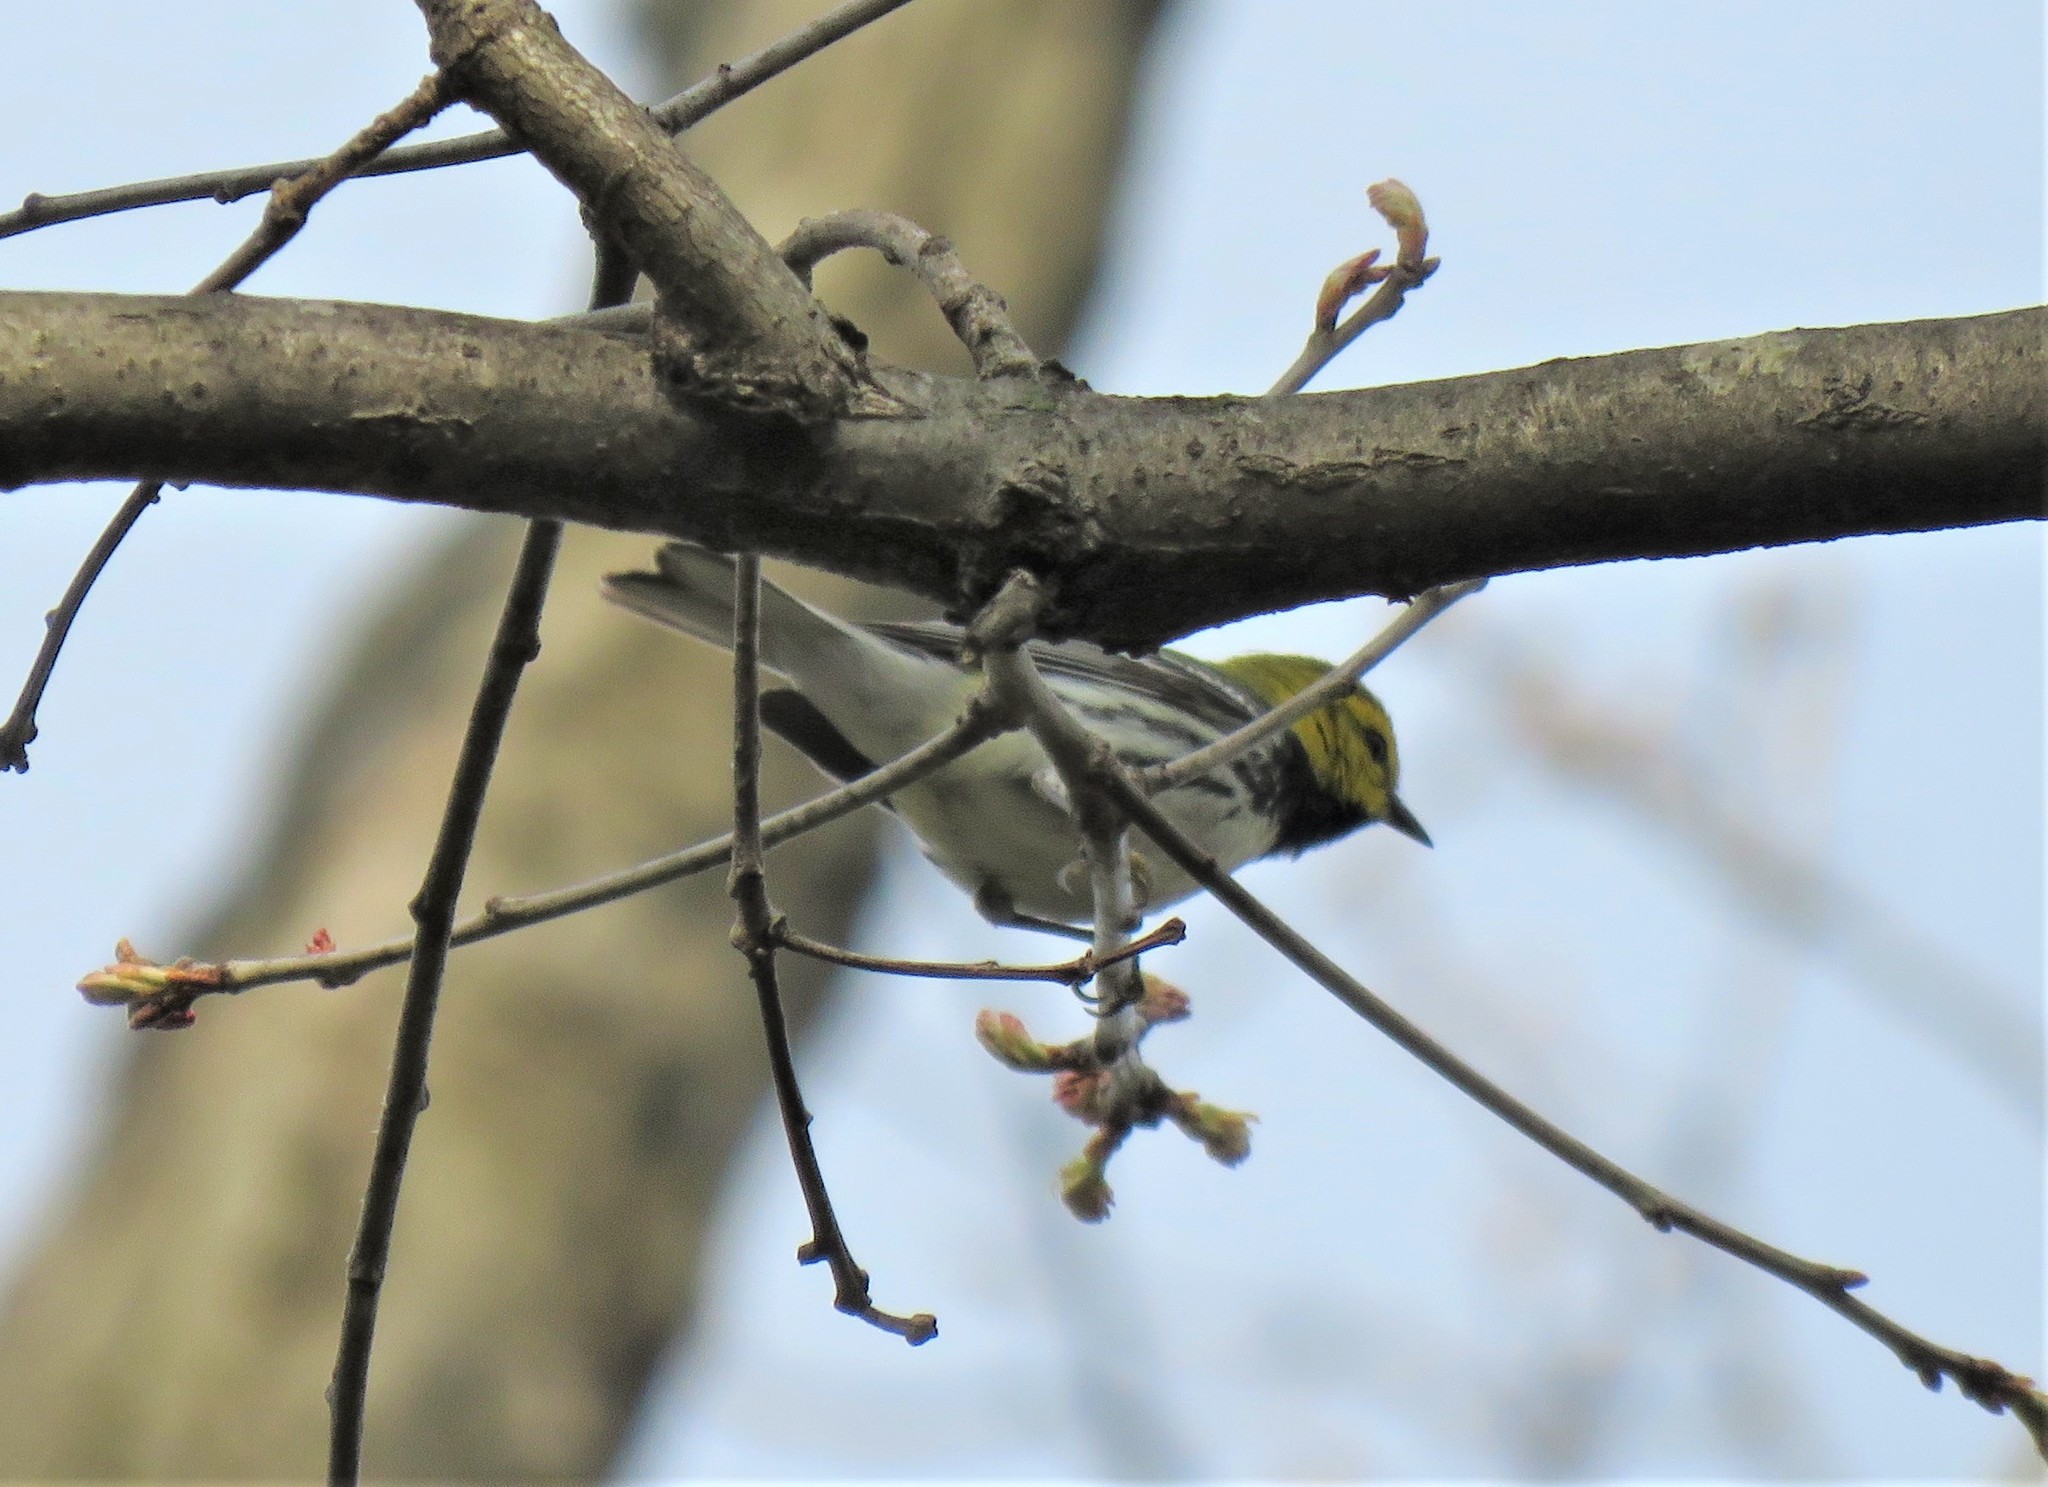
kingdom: Animalia
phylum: Chordata
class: Aves
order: Passeriformes
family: Parulidae
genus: Setophaga
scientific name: Setophaga virens
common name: Black-throated green warbler
